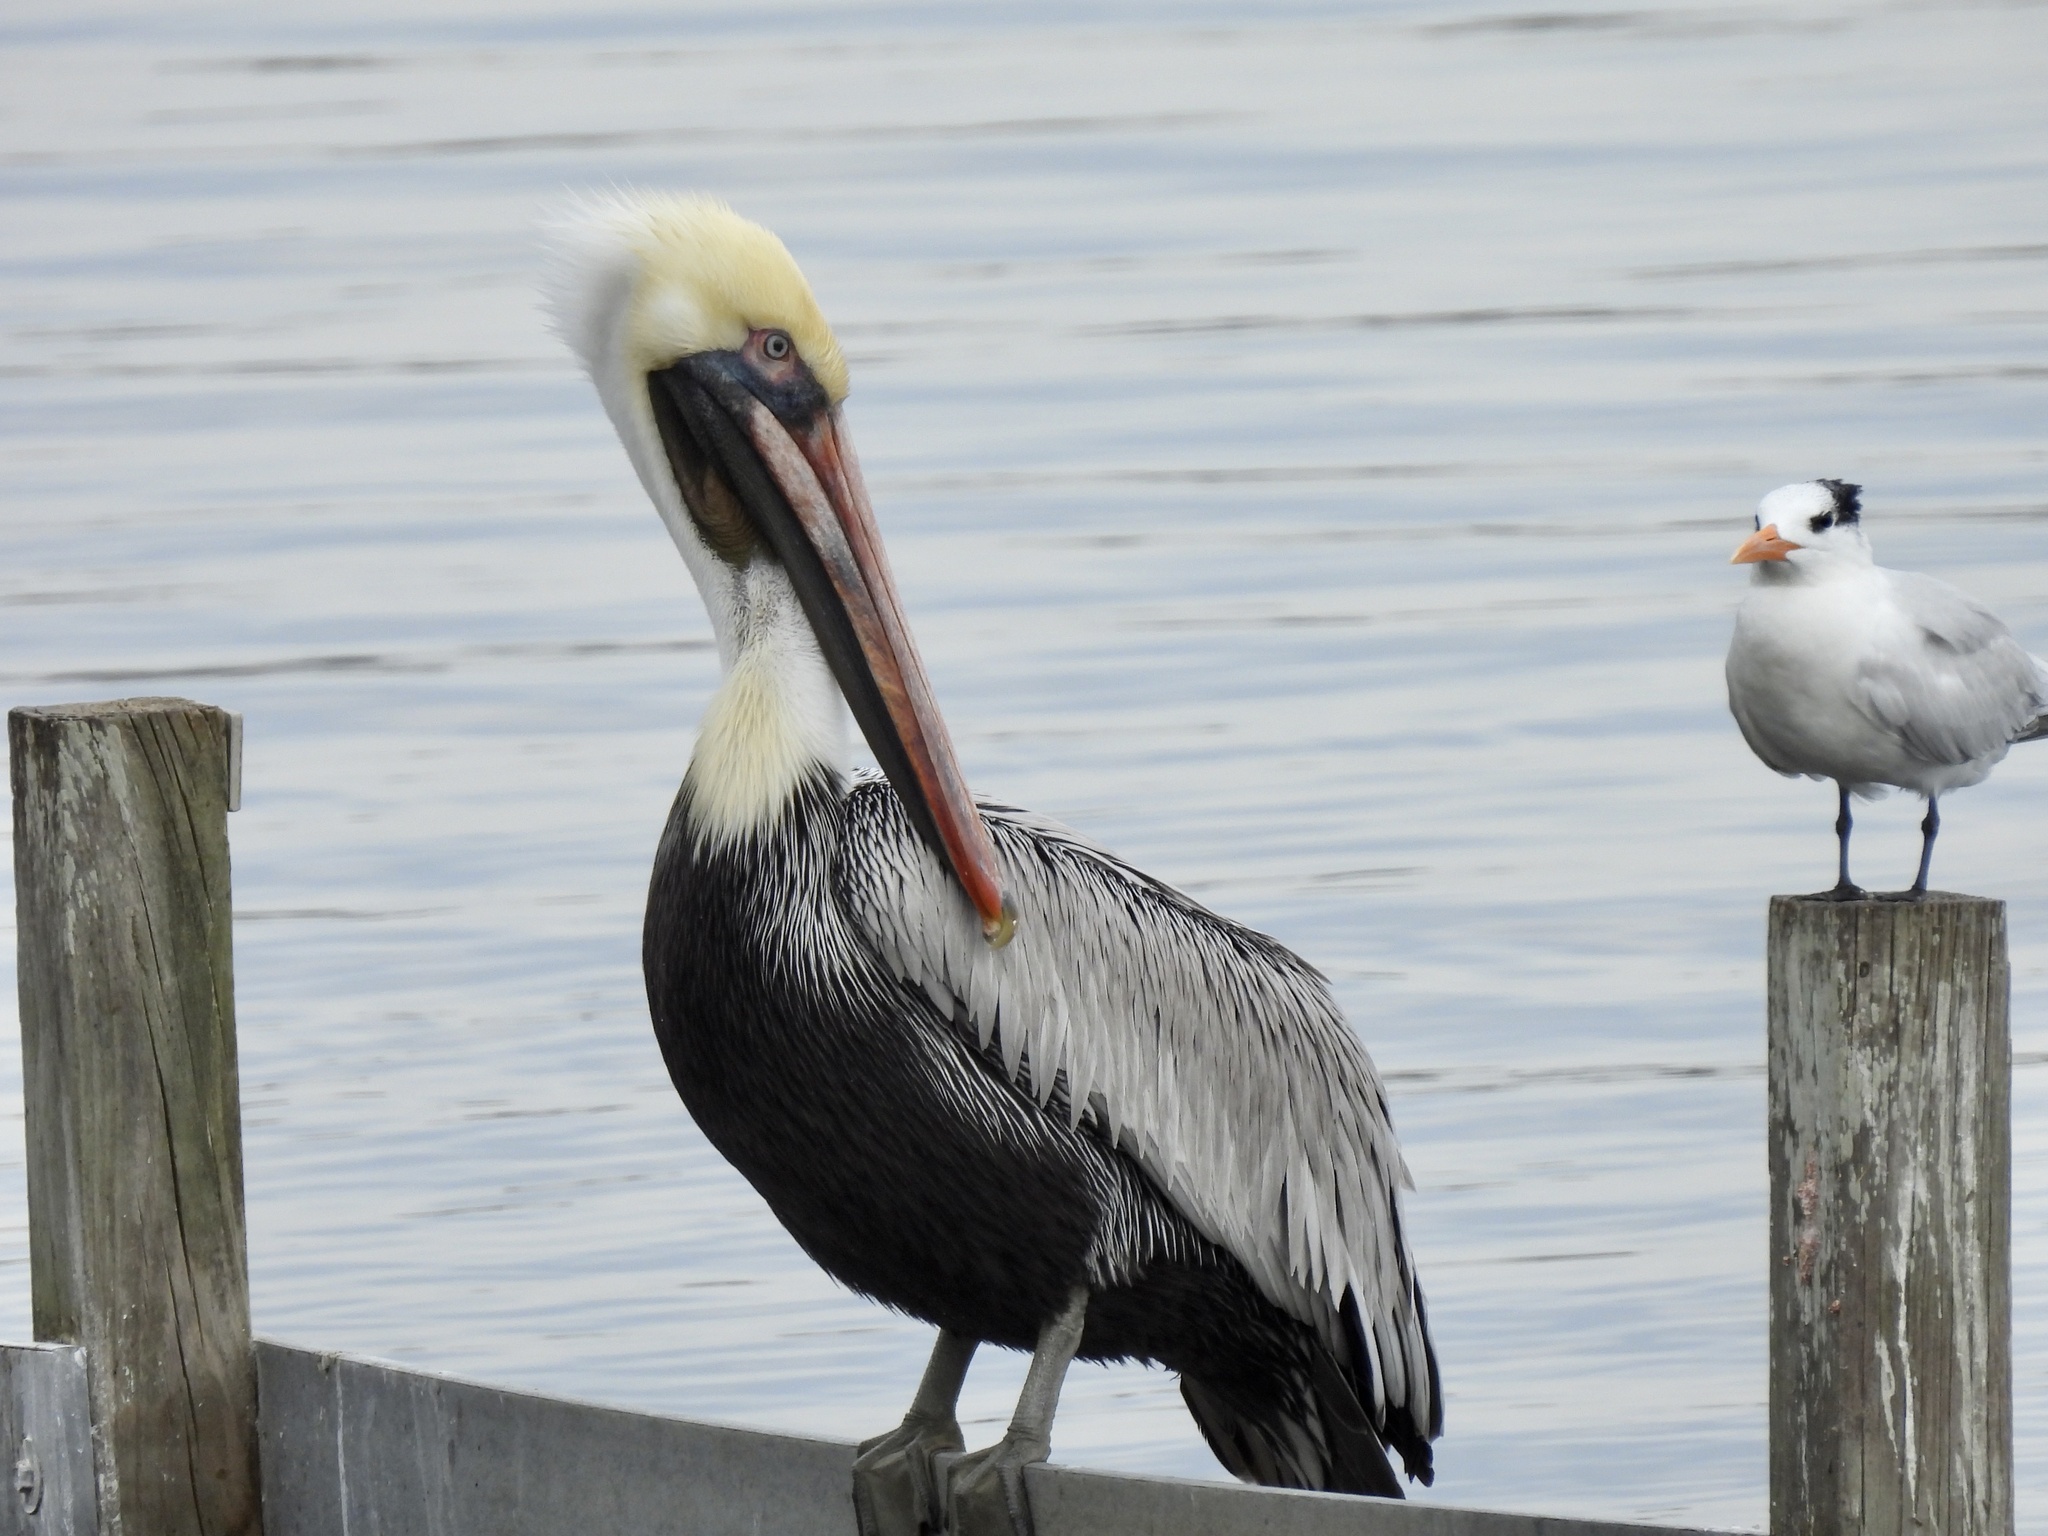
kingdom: Animalia
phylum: Chordata
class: Aves
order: Pelecaniformes
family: Pelecanidae
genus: Pelecanus
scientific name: Pelecanus occidentalis
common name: Brown pelican
